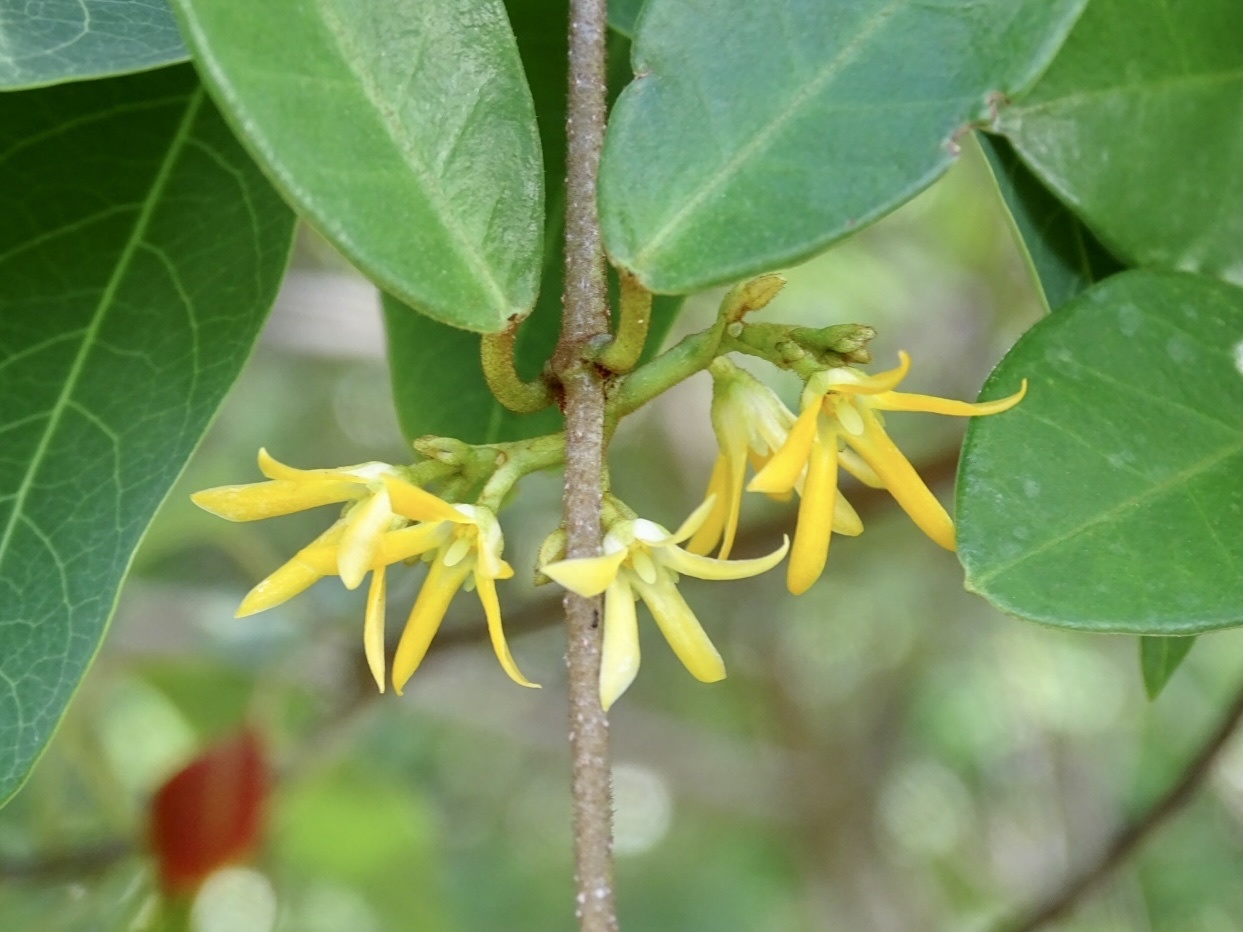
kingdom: Plantae
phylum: Tracheophyta
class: Magnoliopsida
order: Gentianales
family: Apocynaceae
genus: Toxocarpus
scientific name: Toxocarpus wightianus
